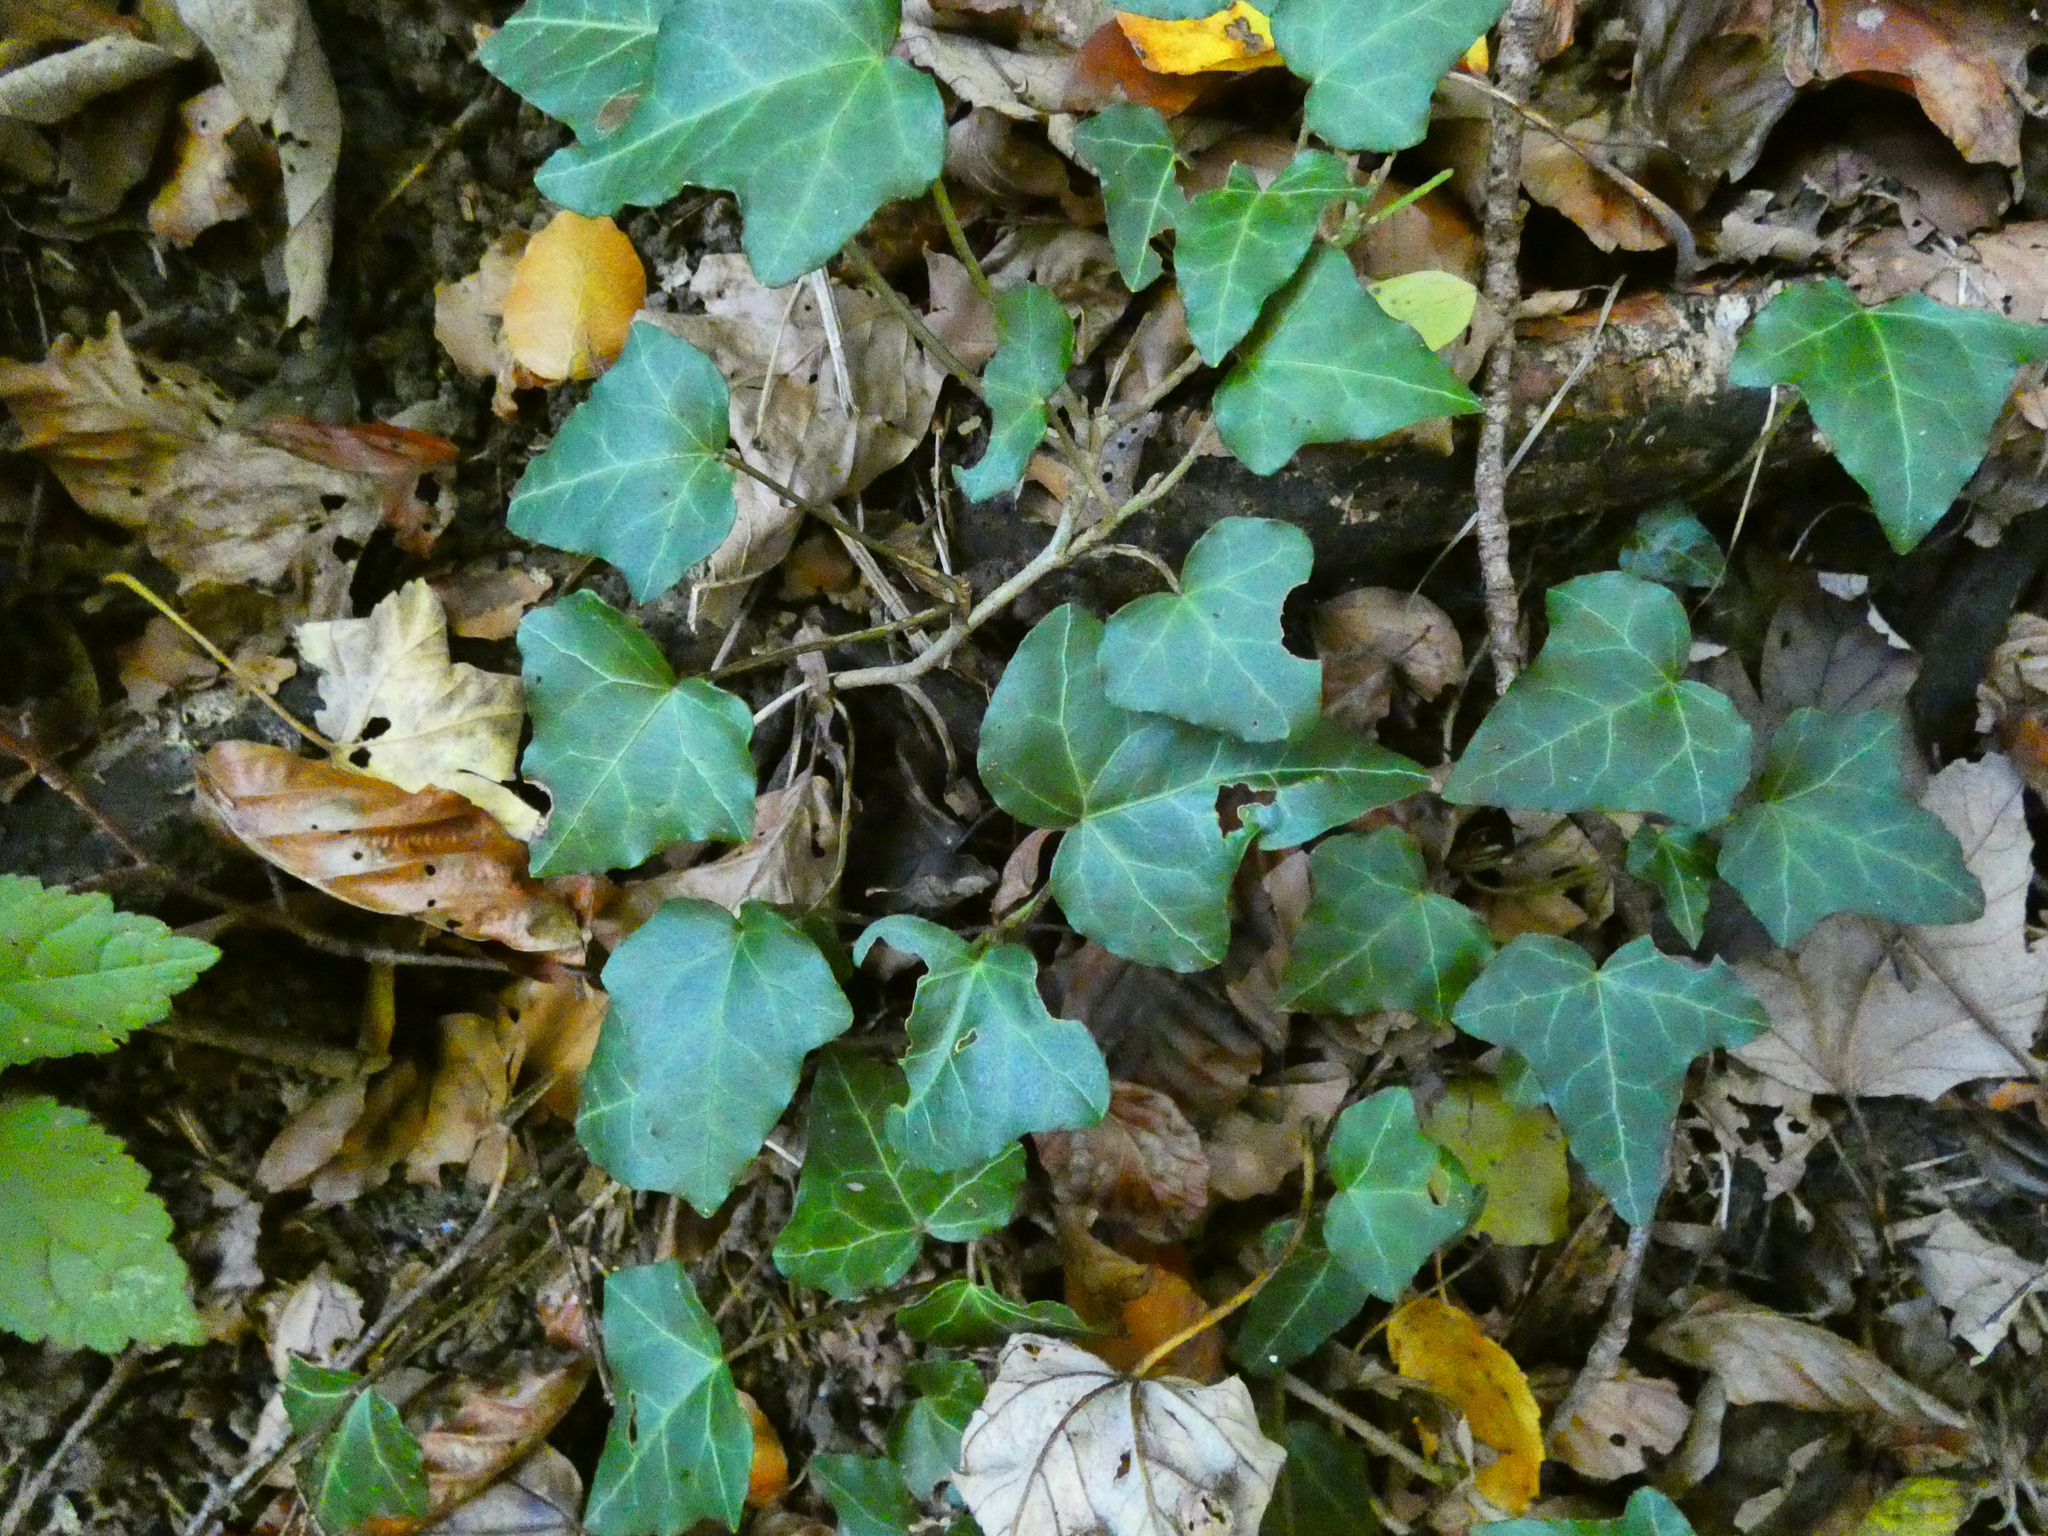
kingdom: Plantae
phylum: Tracheophyta
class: Magnoliopsida
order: Apiales
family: Araliaceae
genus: Hedera
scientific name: Hedera helix
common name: Ivy
